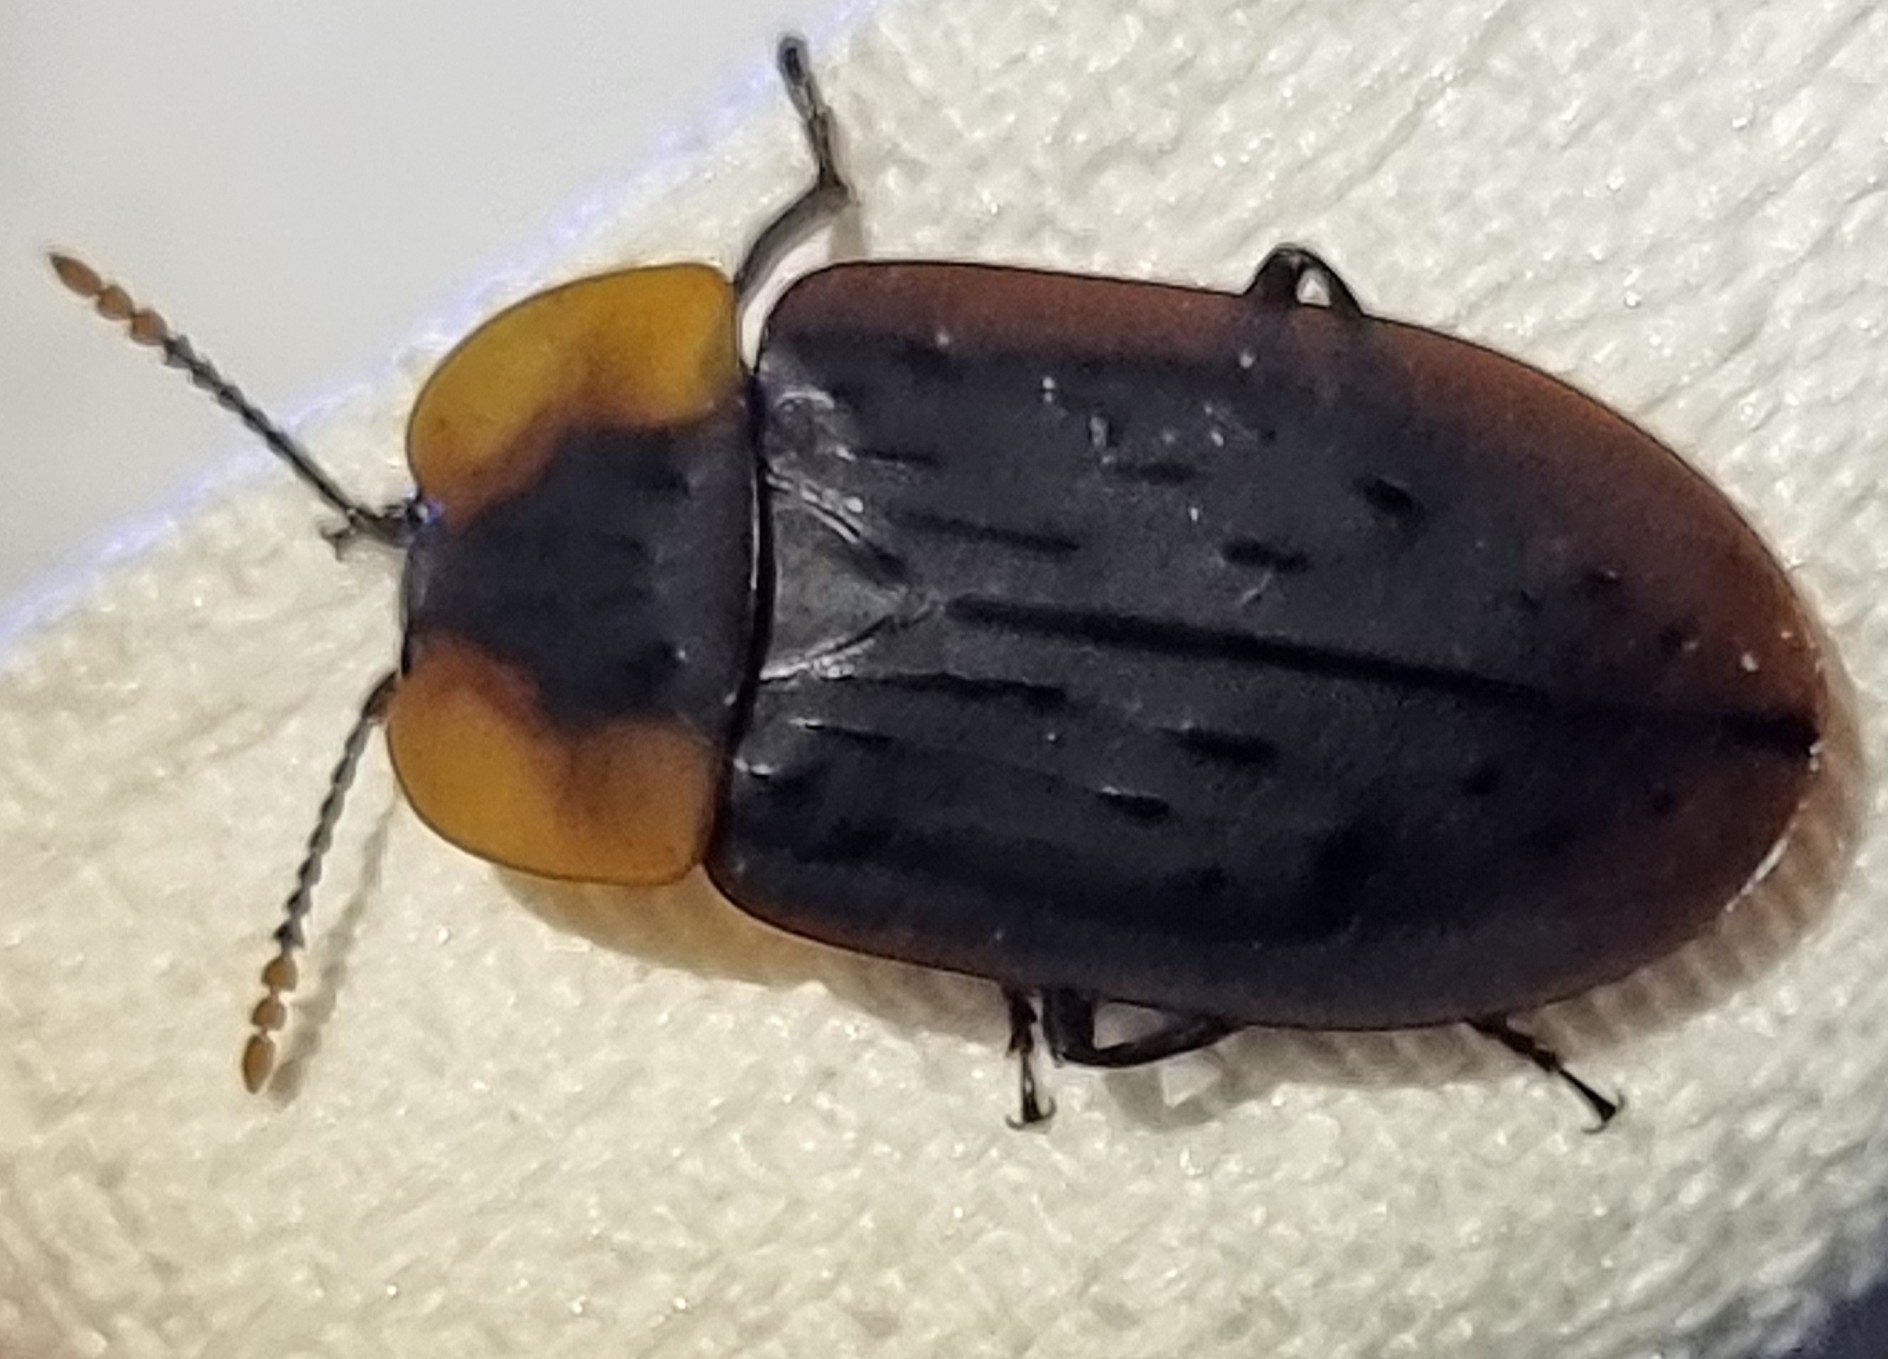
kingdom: Animalia
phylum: Arthropoda
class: Insecta
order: Coleoptera
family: Staphylinidae
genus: Ptomaphila
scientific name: Ptomaphila perlata
